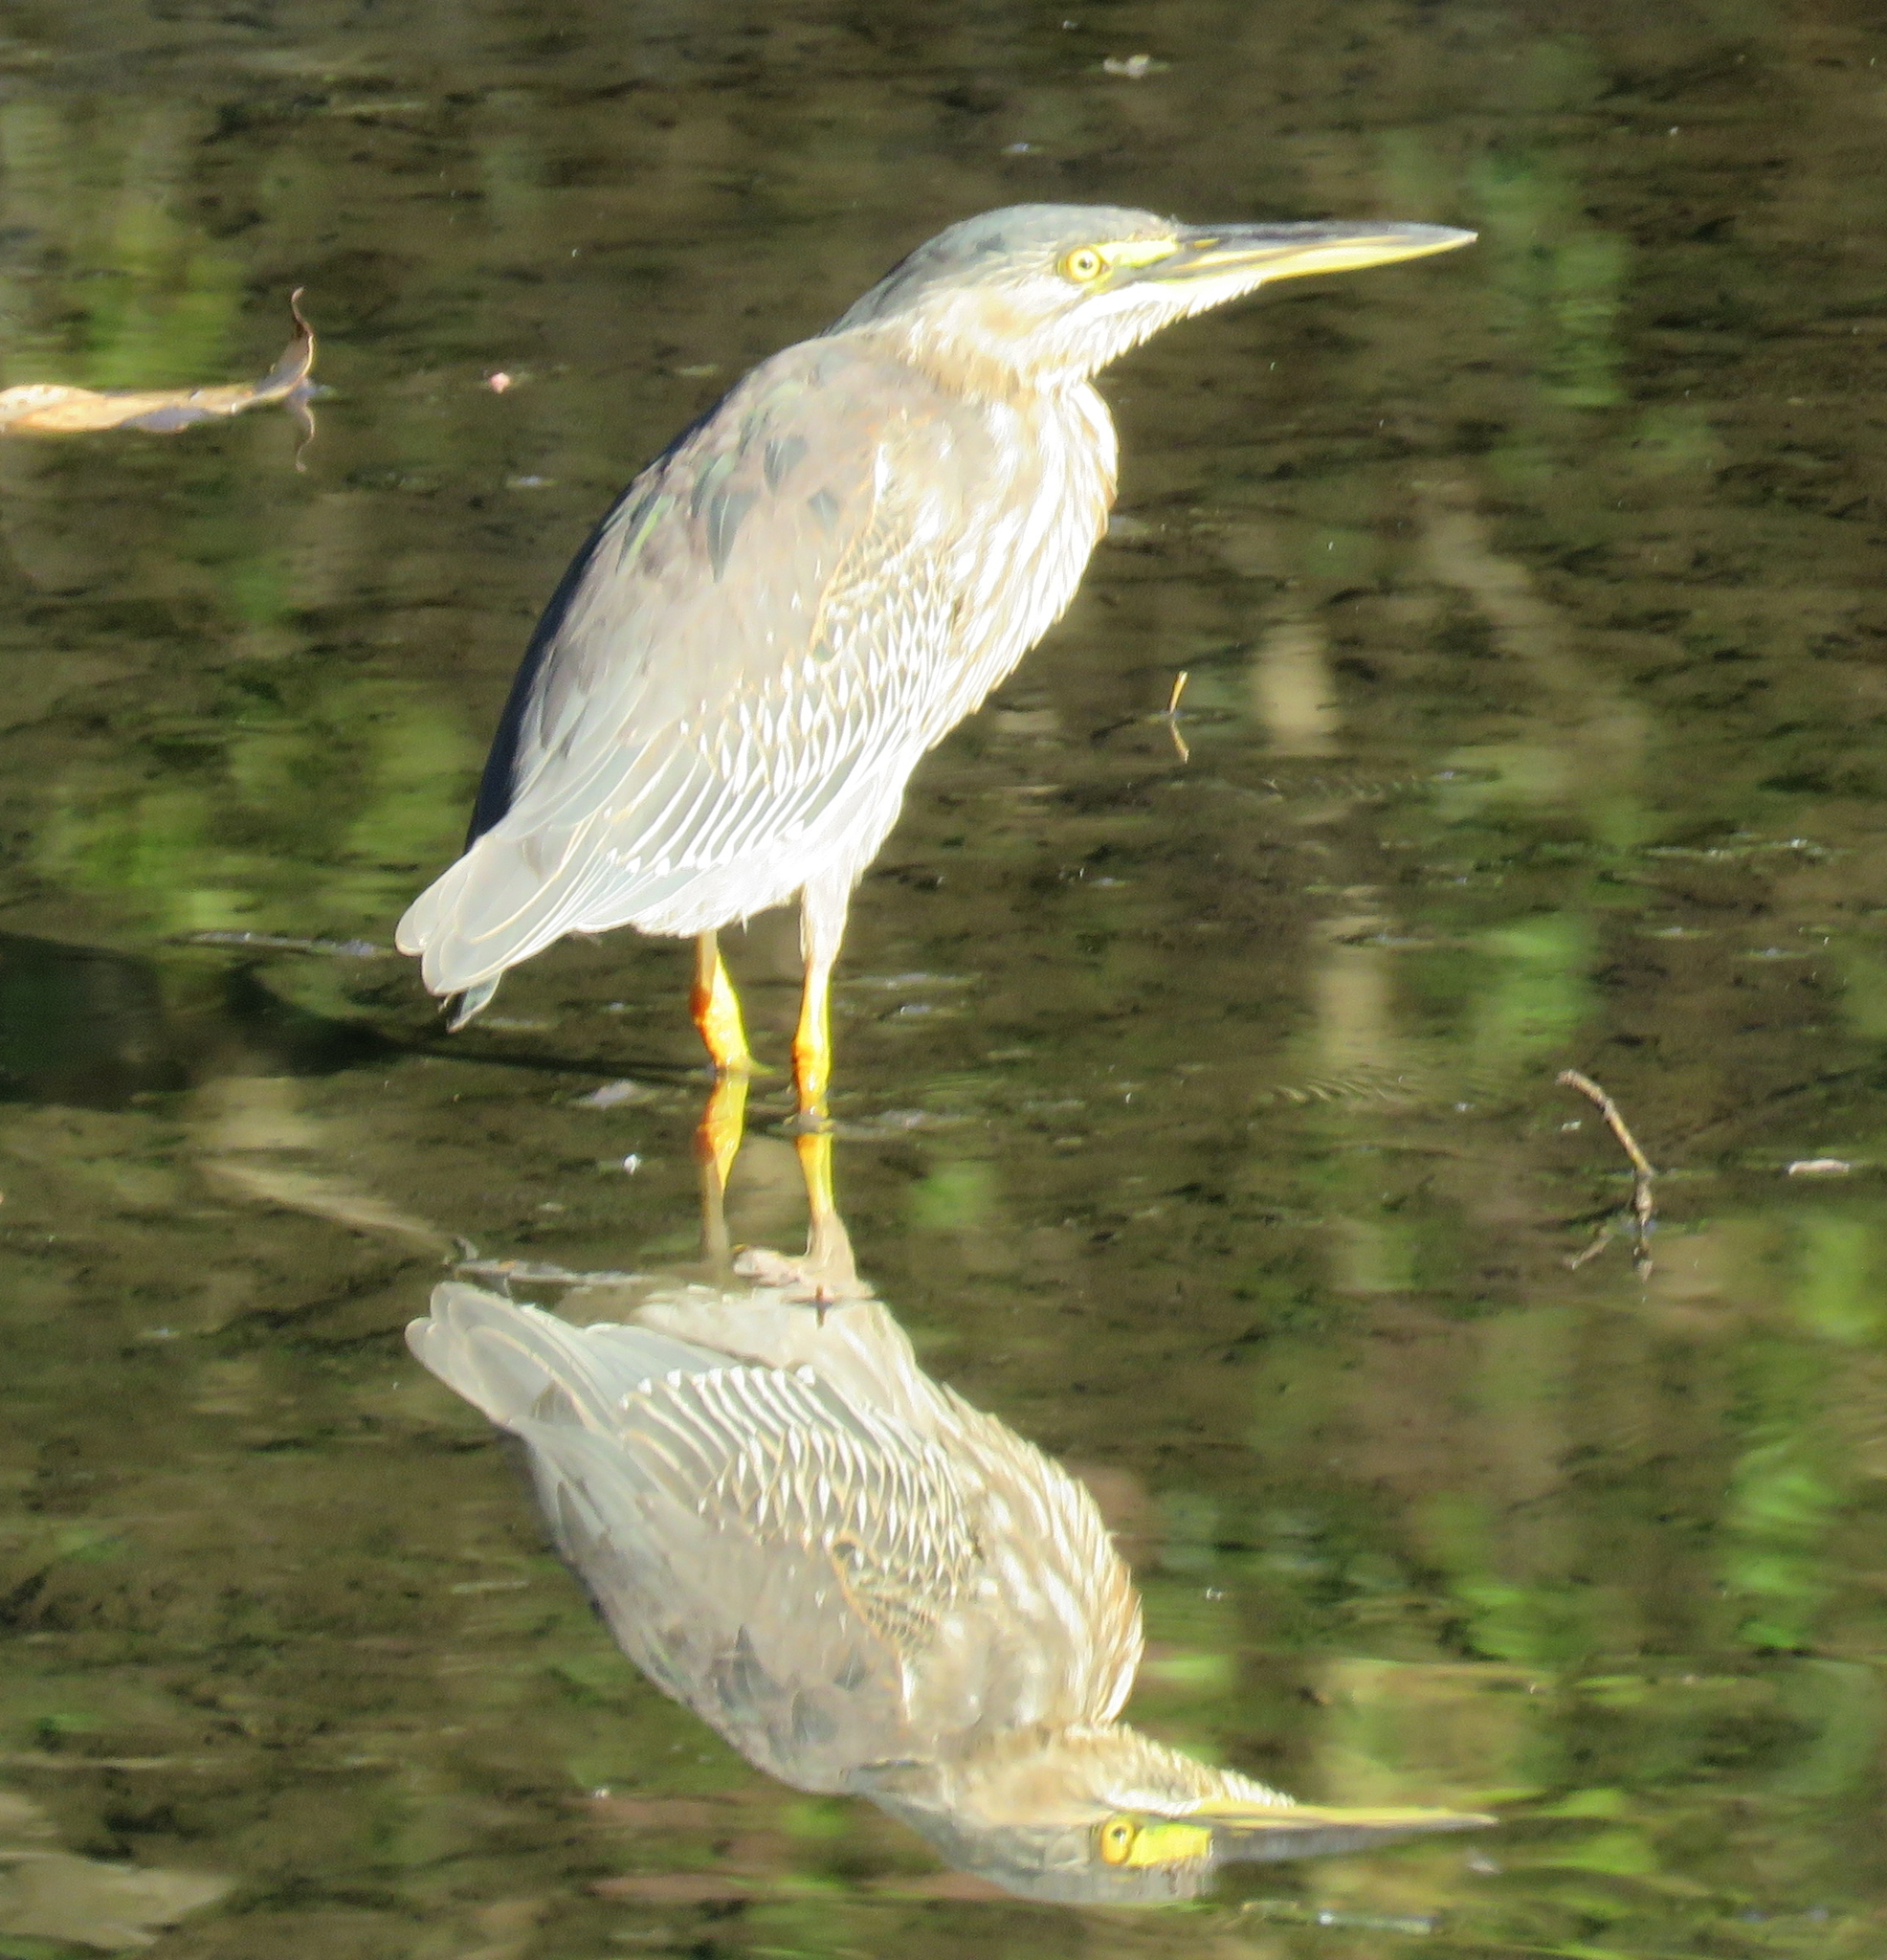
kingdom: Animalia
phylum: Chordata
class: Aves
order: Pelecaniformes
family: Ardeidae
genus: Butorides
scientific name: Butorides striata
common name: Striated heron
